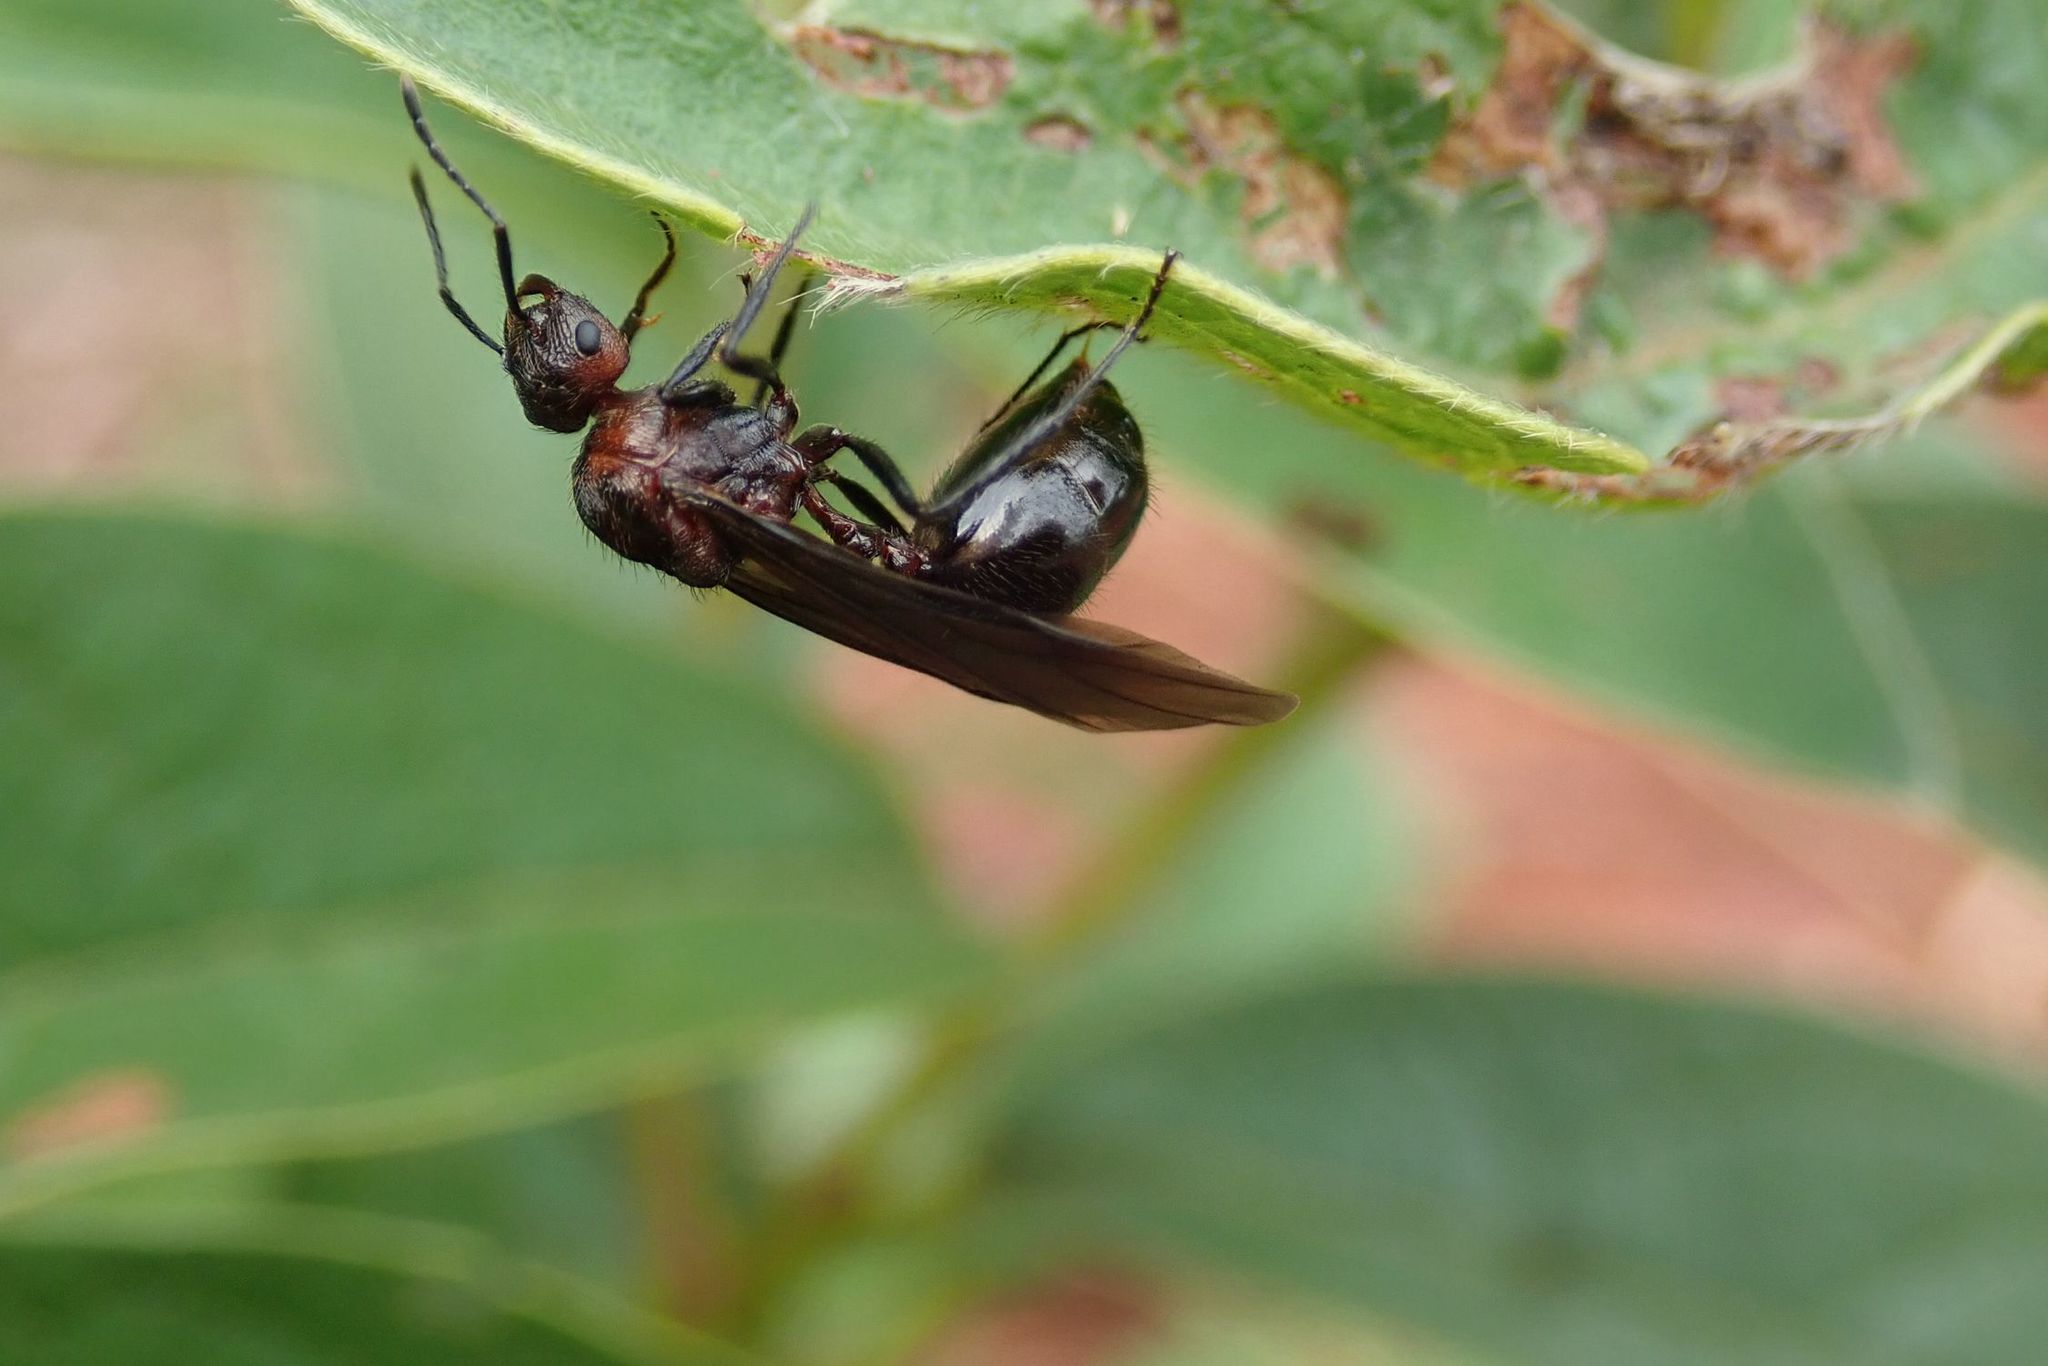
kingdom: Animalia
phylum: Arthropoda
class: Insecta
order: Hymenoptera
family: Formicidae
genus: Myrmicaria
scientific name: Myrmicaria natalensis
